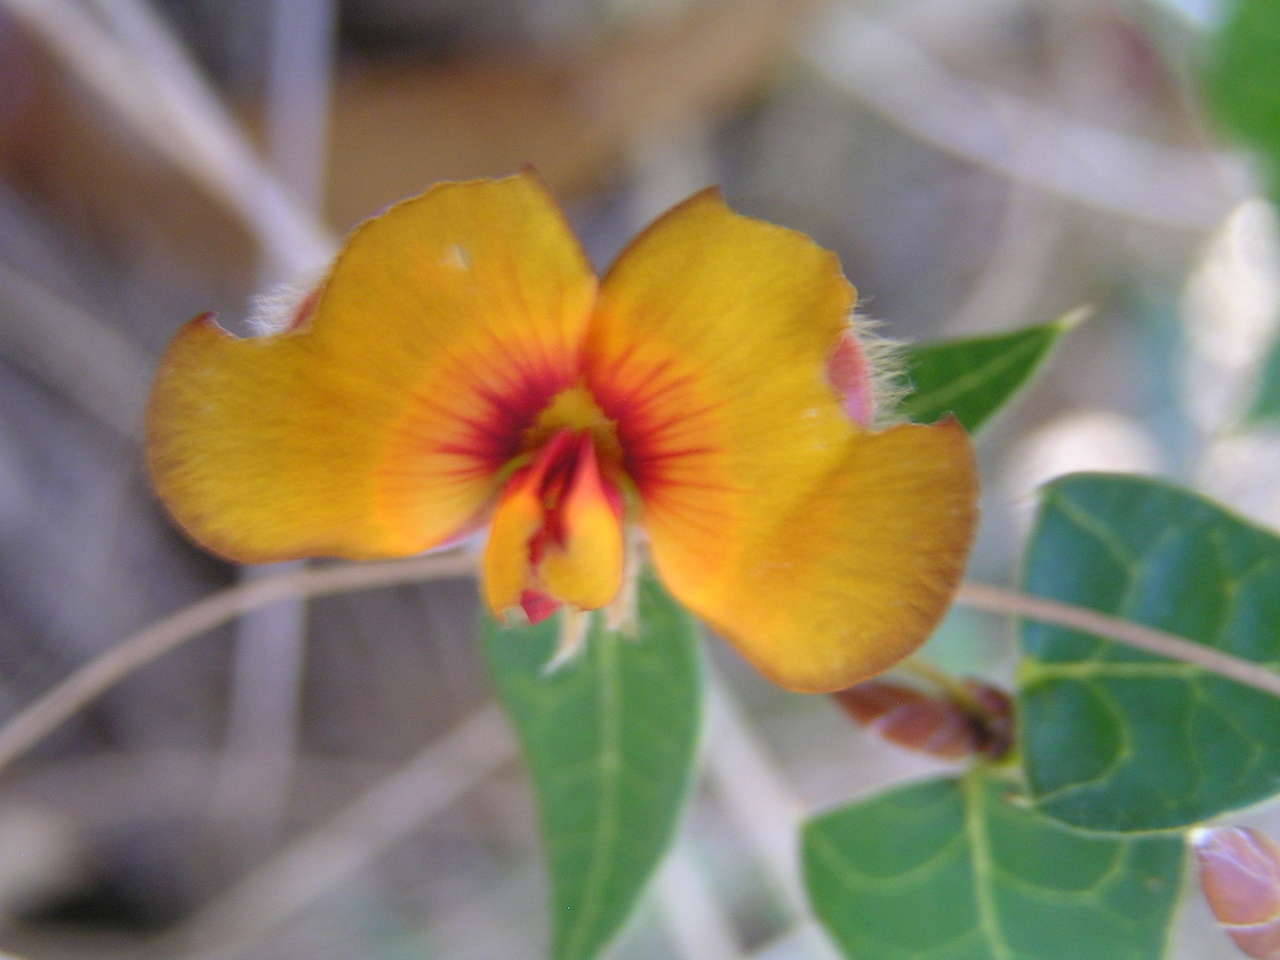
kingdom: Plantae
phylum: Tracheophyta
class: Magnoliopsida
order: Fabales
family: Fabaceae
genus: Platylobium
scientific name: Platylobium obtusangulum
